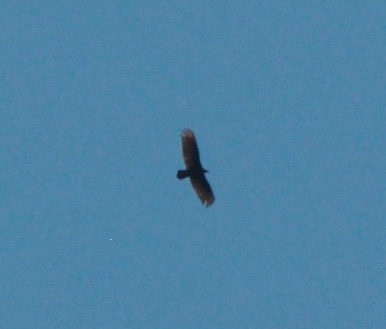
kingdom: Animalia
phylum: Chordata
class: Aves
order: Accipitriformes
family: Cathartidae
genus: Cathartes
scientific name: Cathartes aura
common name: Turkey vulture
